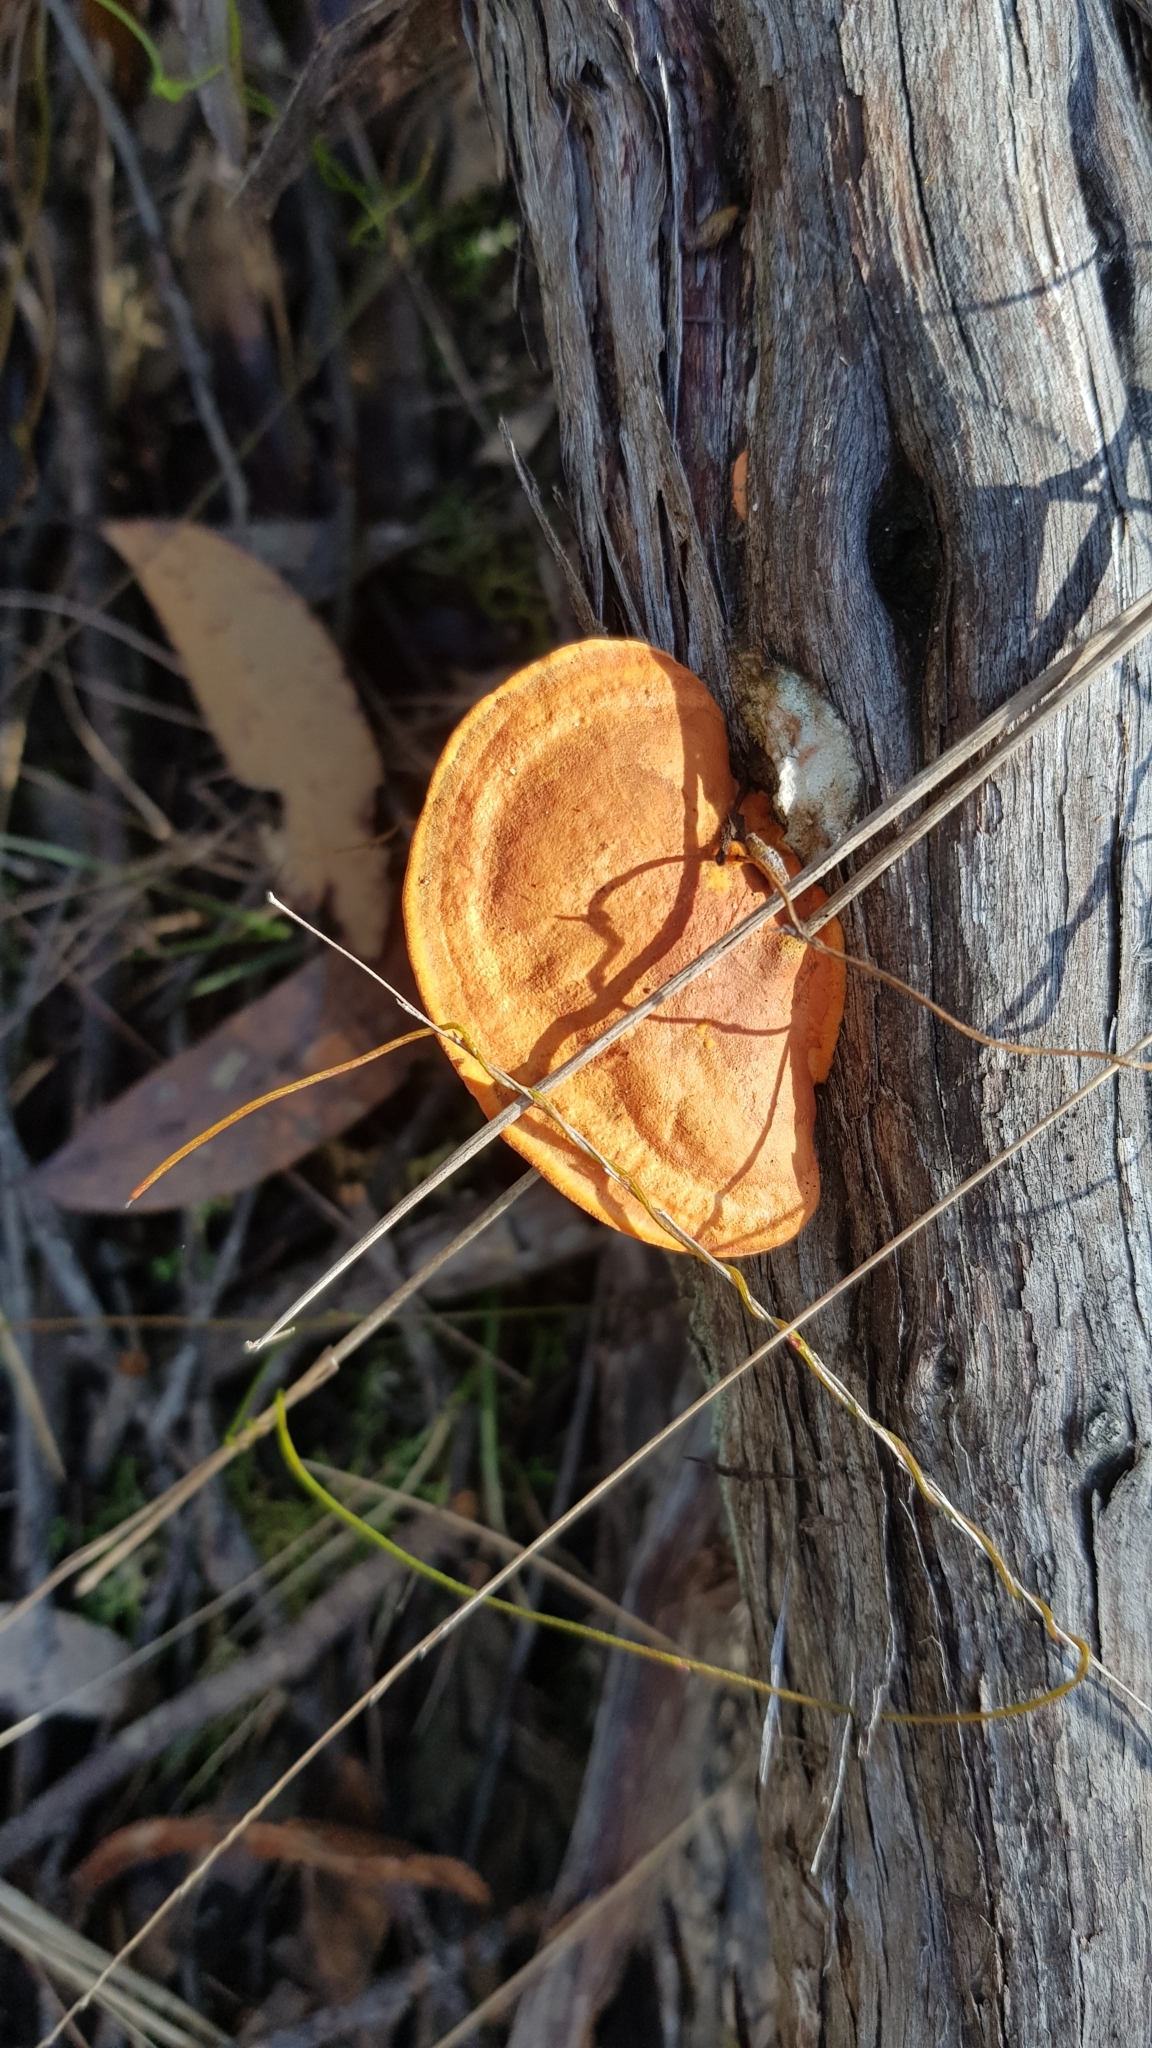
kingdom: Fungi
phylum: Basidiomycota
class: Agaricomycetes
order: Polyporales
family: Polyporaceae
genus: Trametes
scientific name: Trametes coccinea
